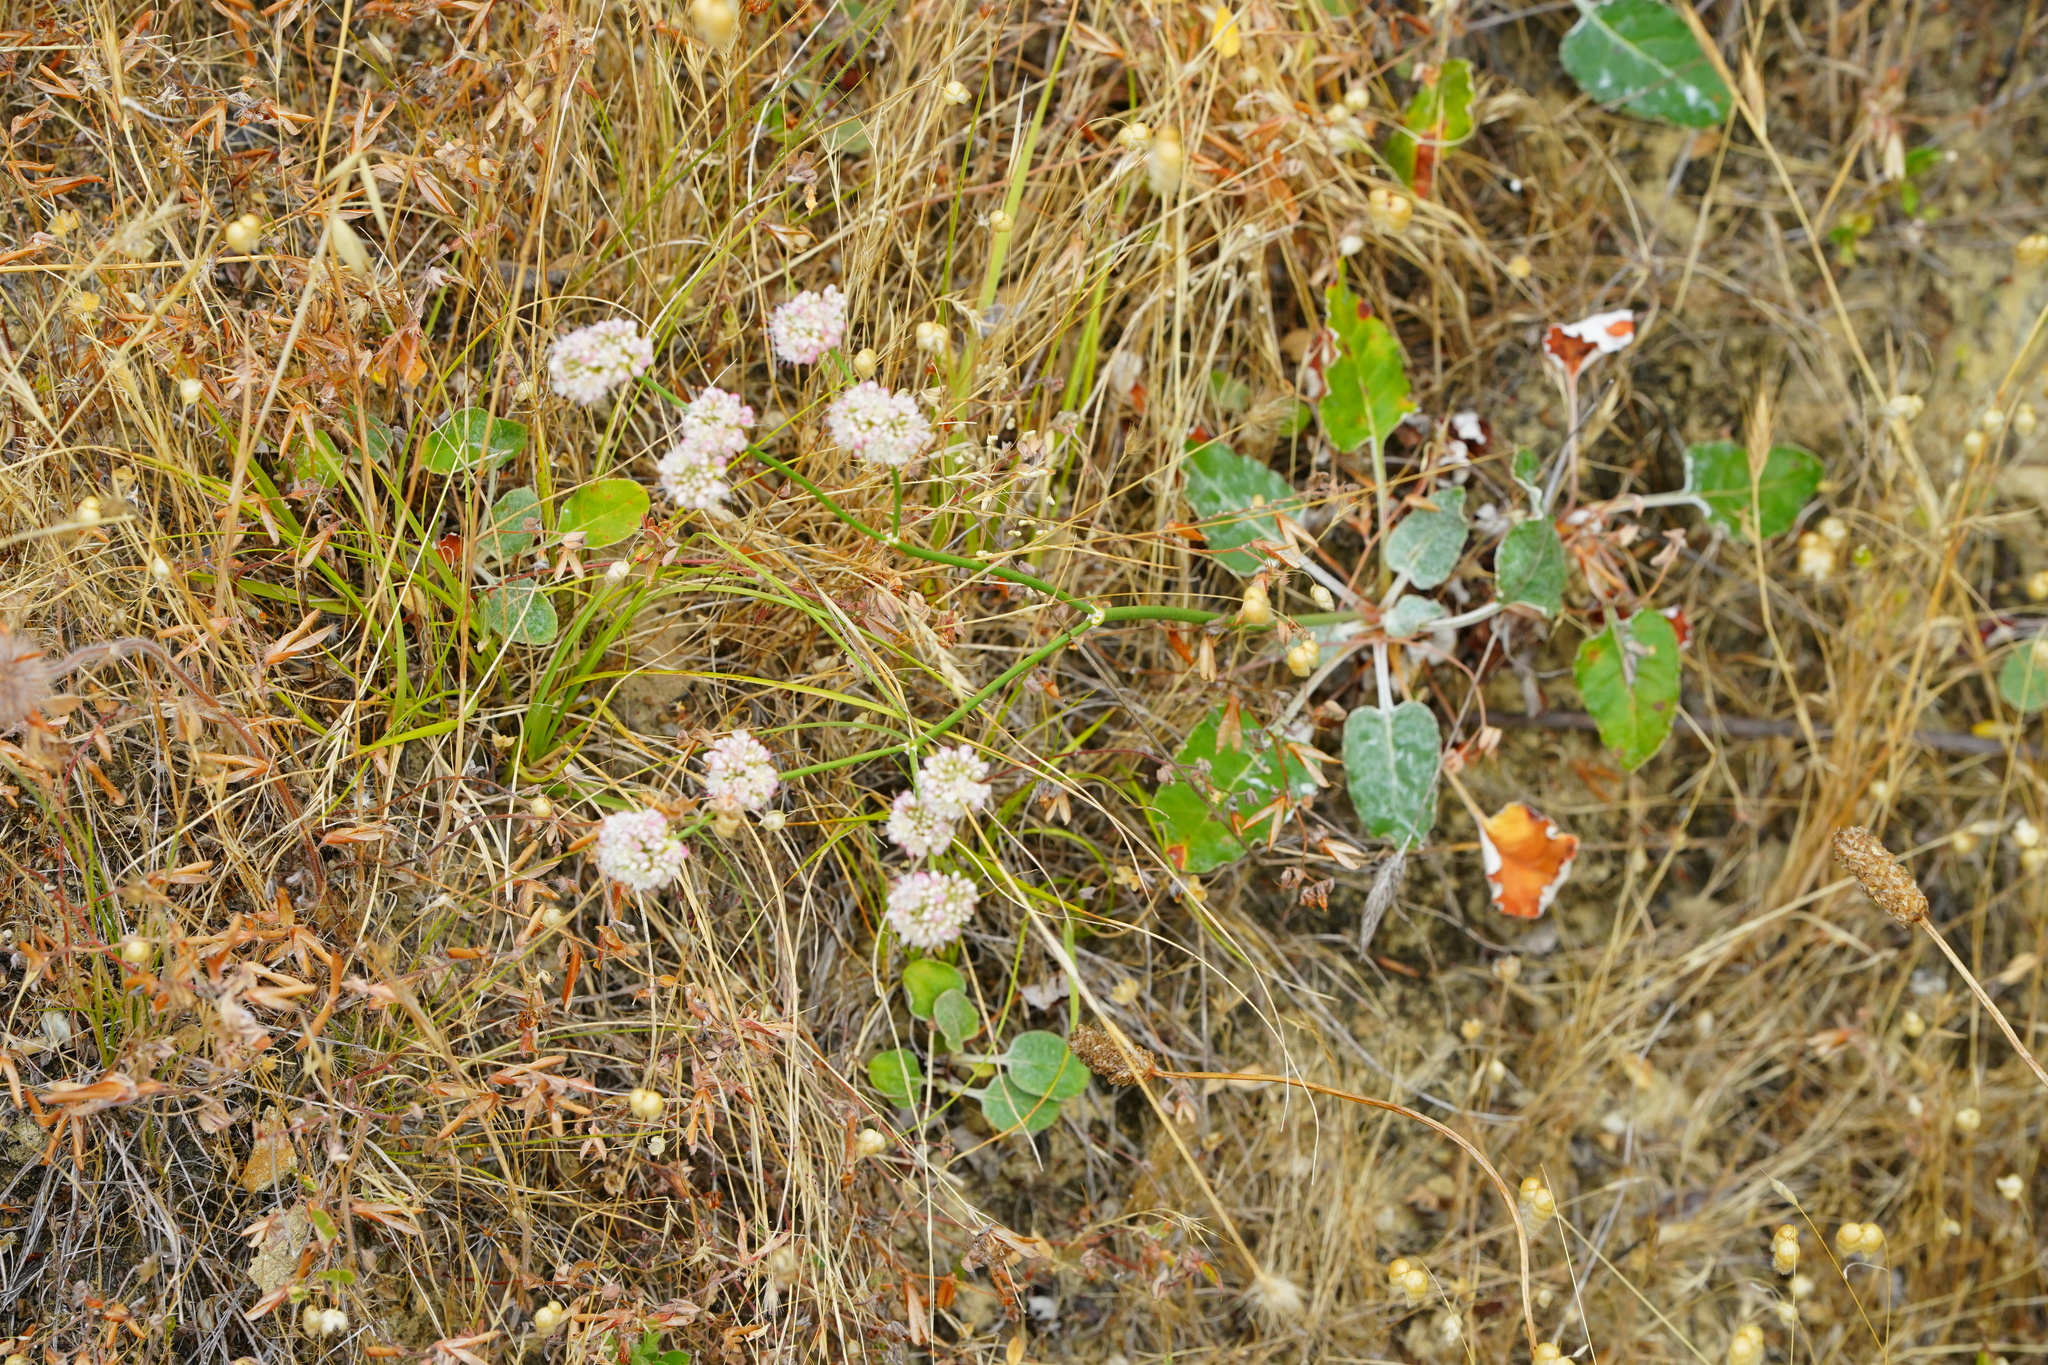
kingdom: Plantae
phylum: Tracheophyta
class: Magnoliopsida
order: Caryophyllales
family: Polygonaceae
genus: Eriogonum
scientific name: Eriogonum nudum
